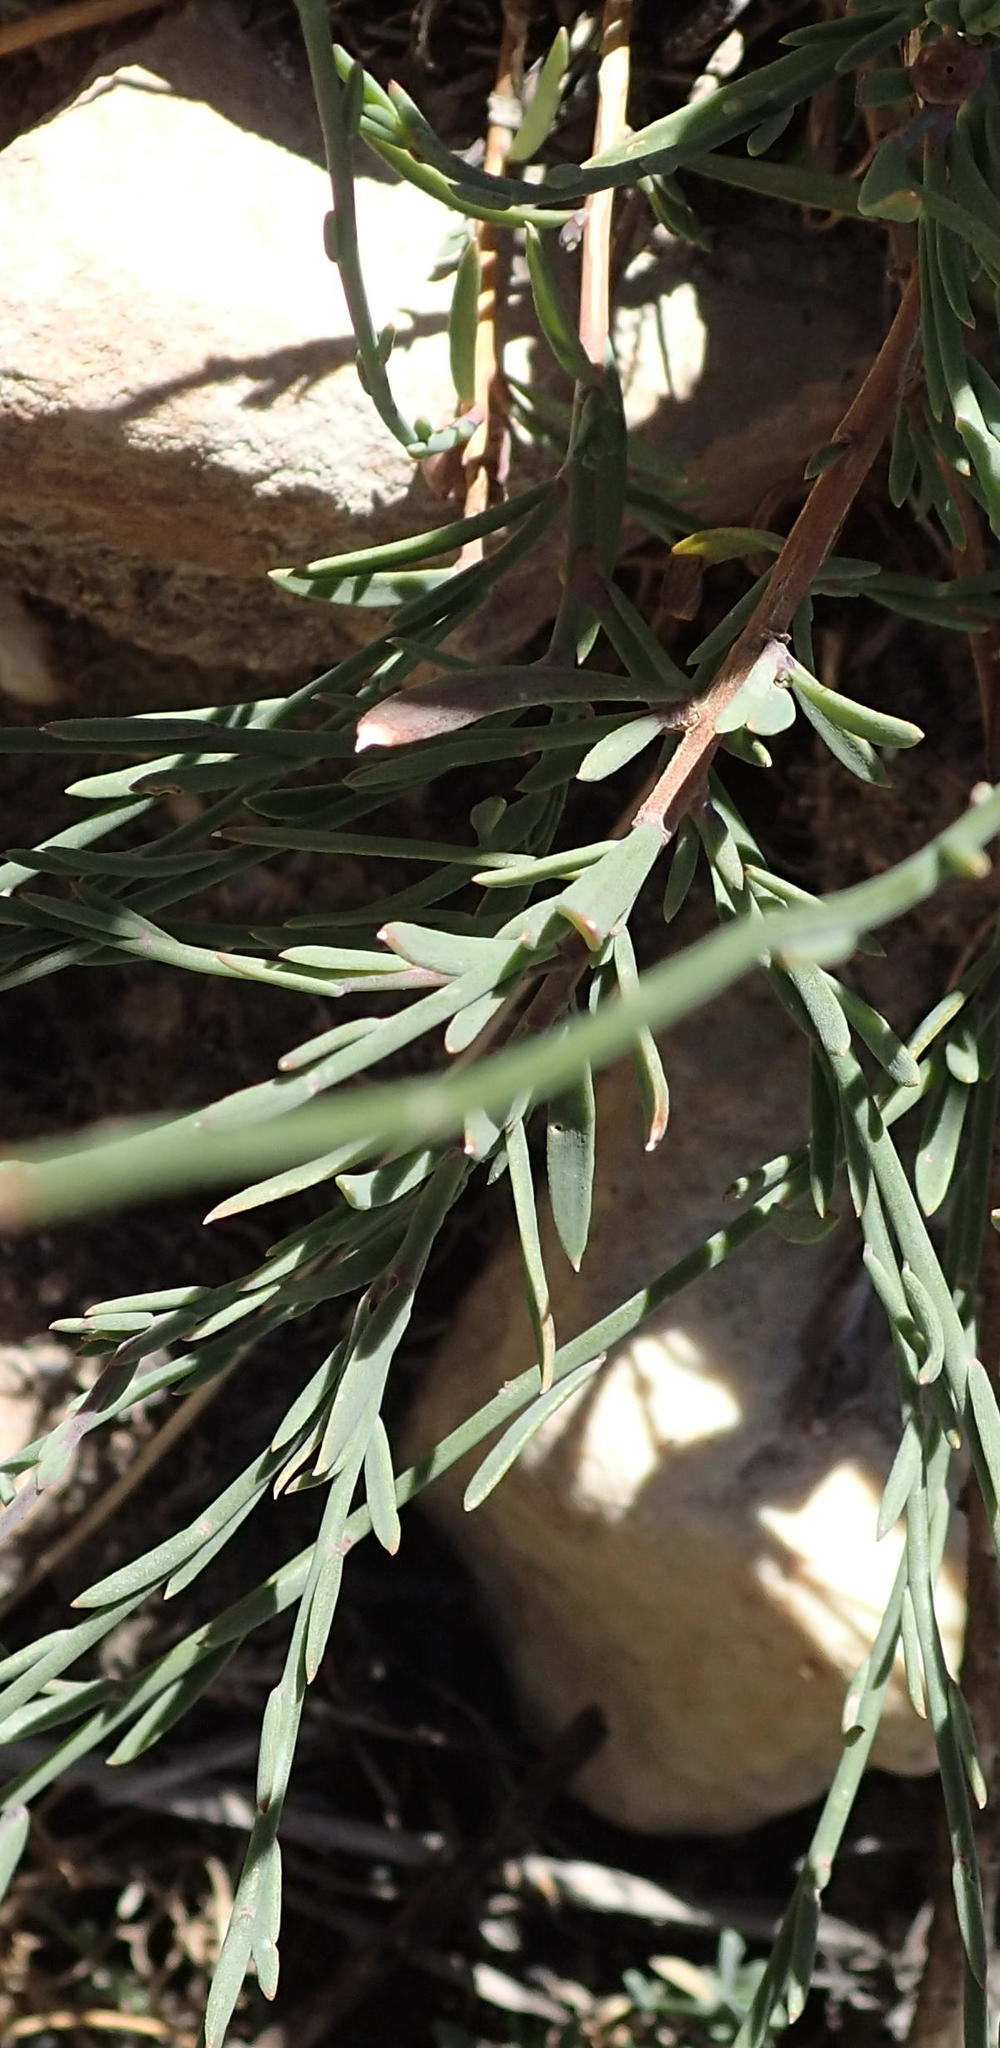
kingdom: Plantae
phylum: Tracheophyta
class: Magnoliopsida
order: Brassicales
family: Brassicaceae
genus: Heliophila
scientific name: Heliophila juncea
